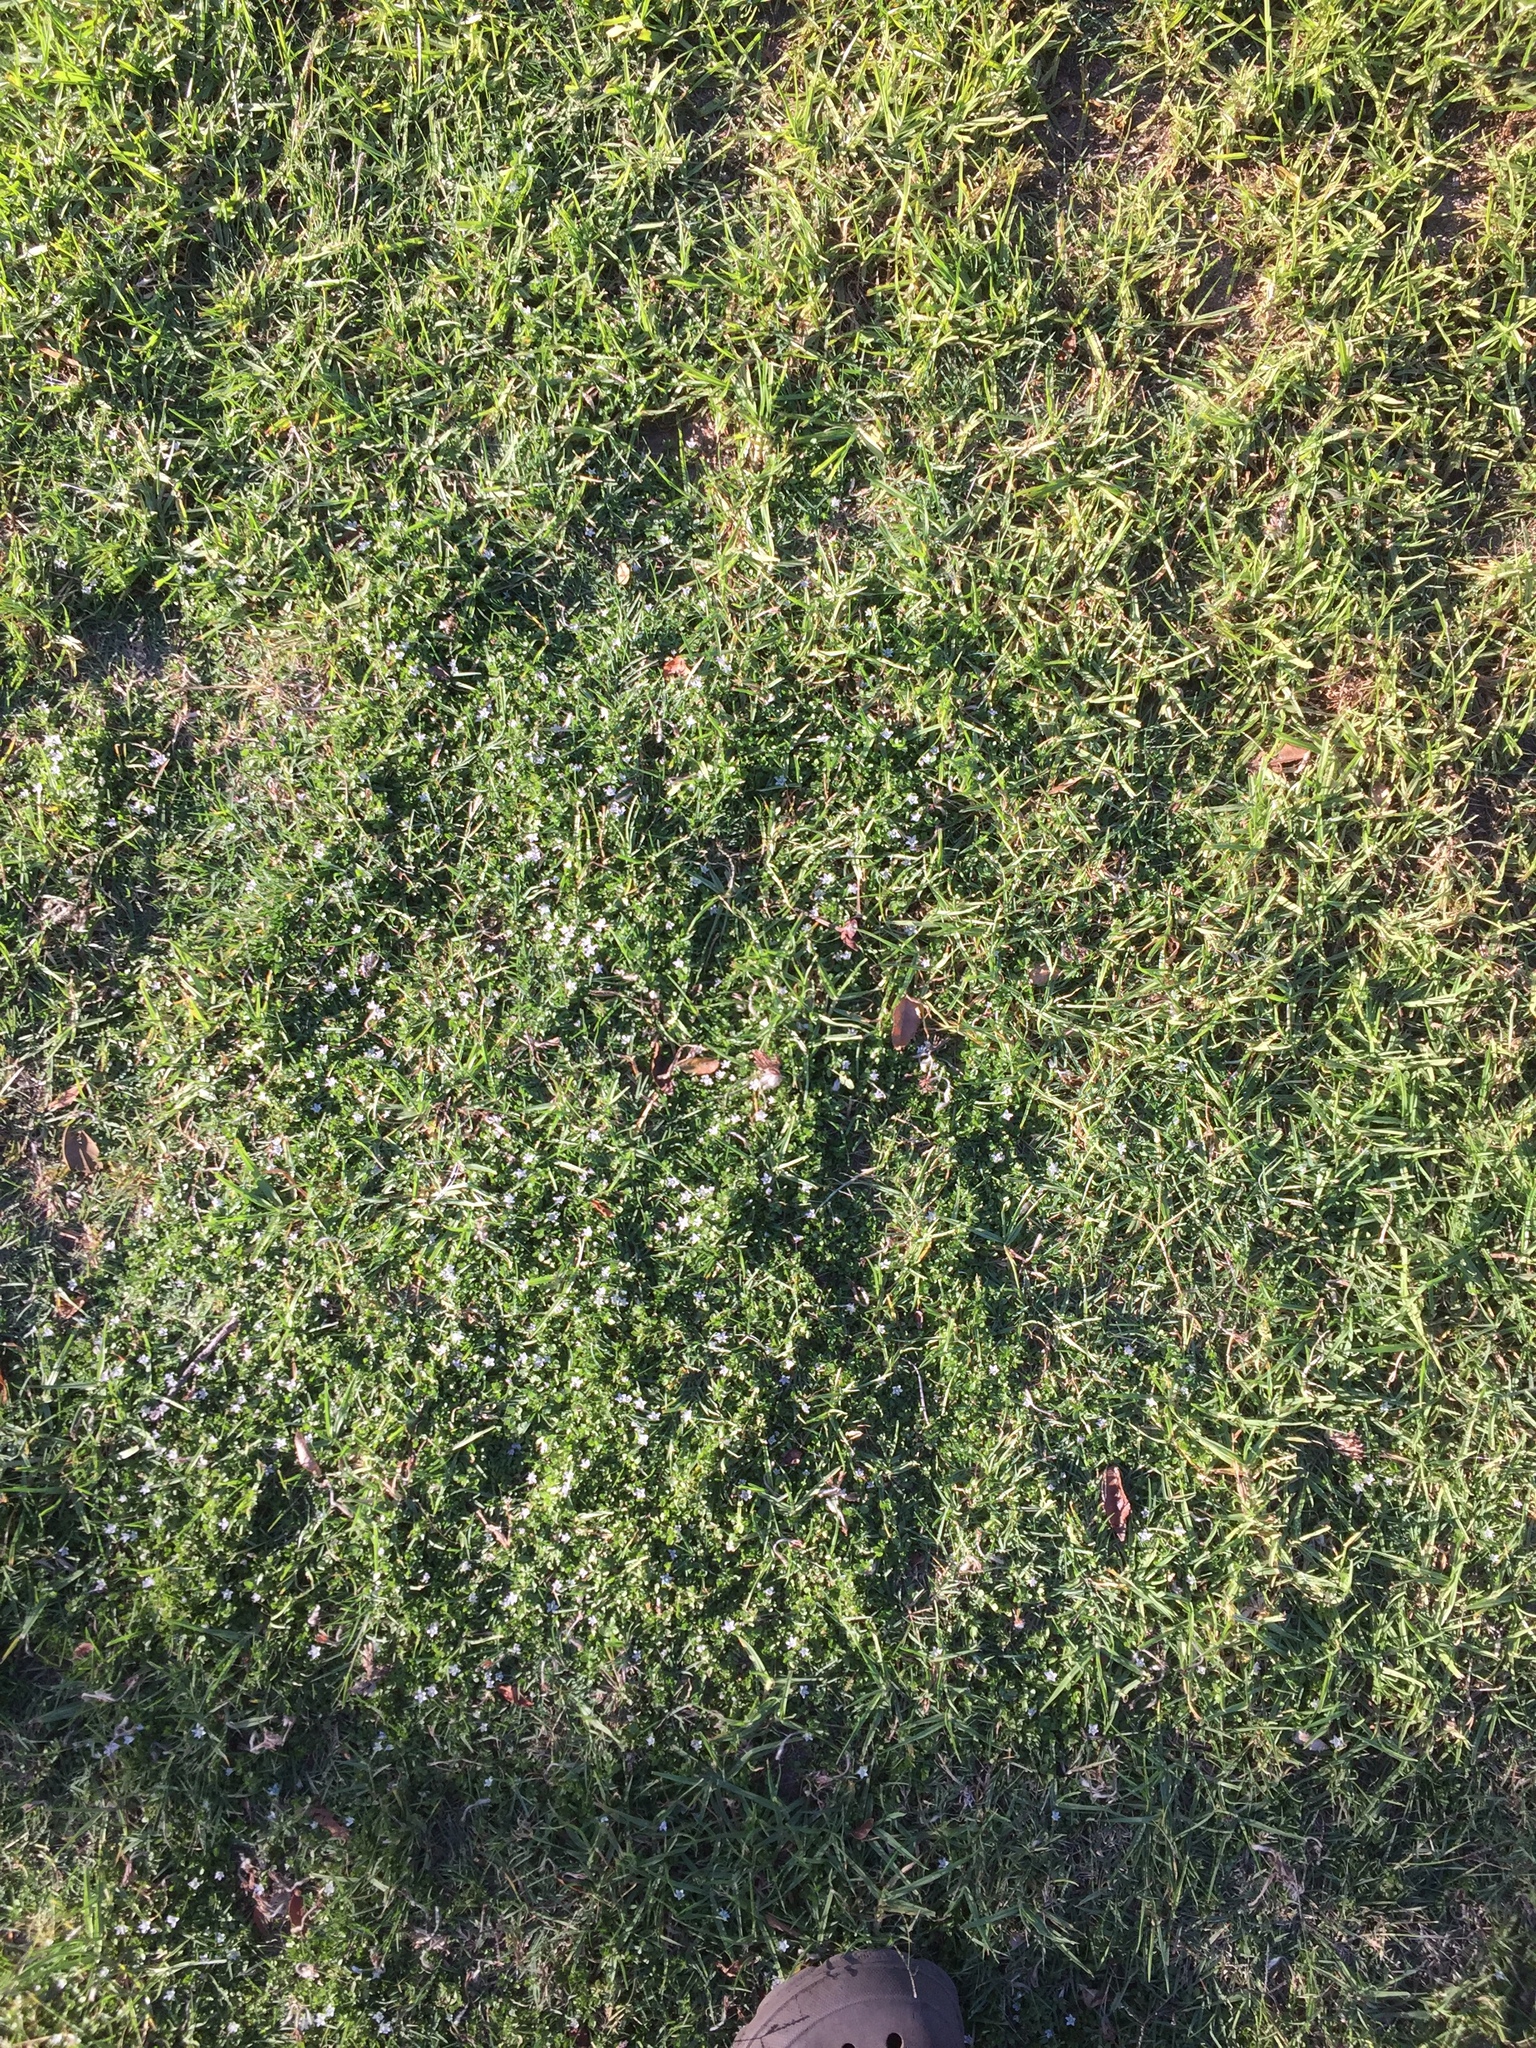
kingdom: Plantae
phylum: Tracheophyta
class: Magnoliopsida
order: Asterales
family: Campanulaceae
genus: Wahlenbergia
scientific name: Wahlenbergia procumbens
